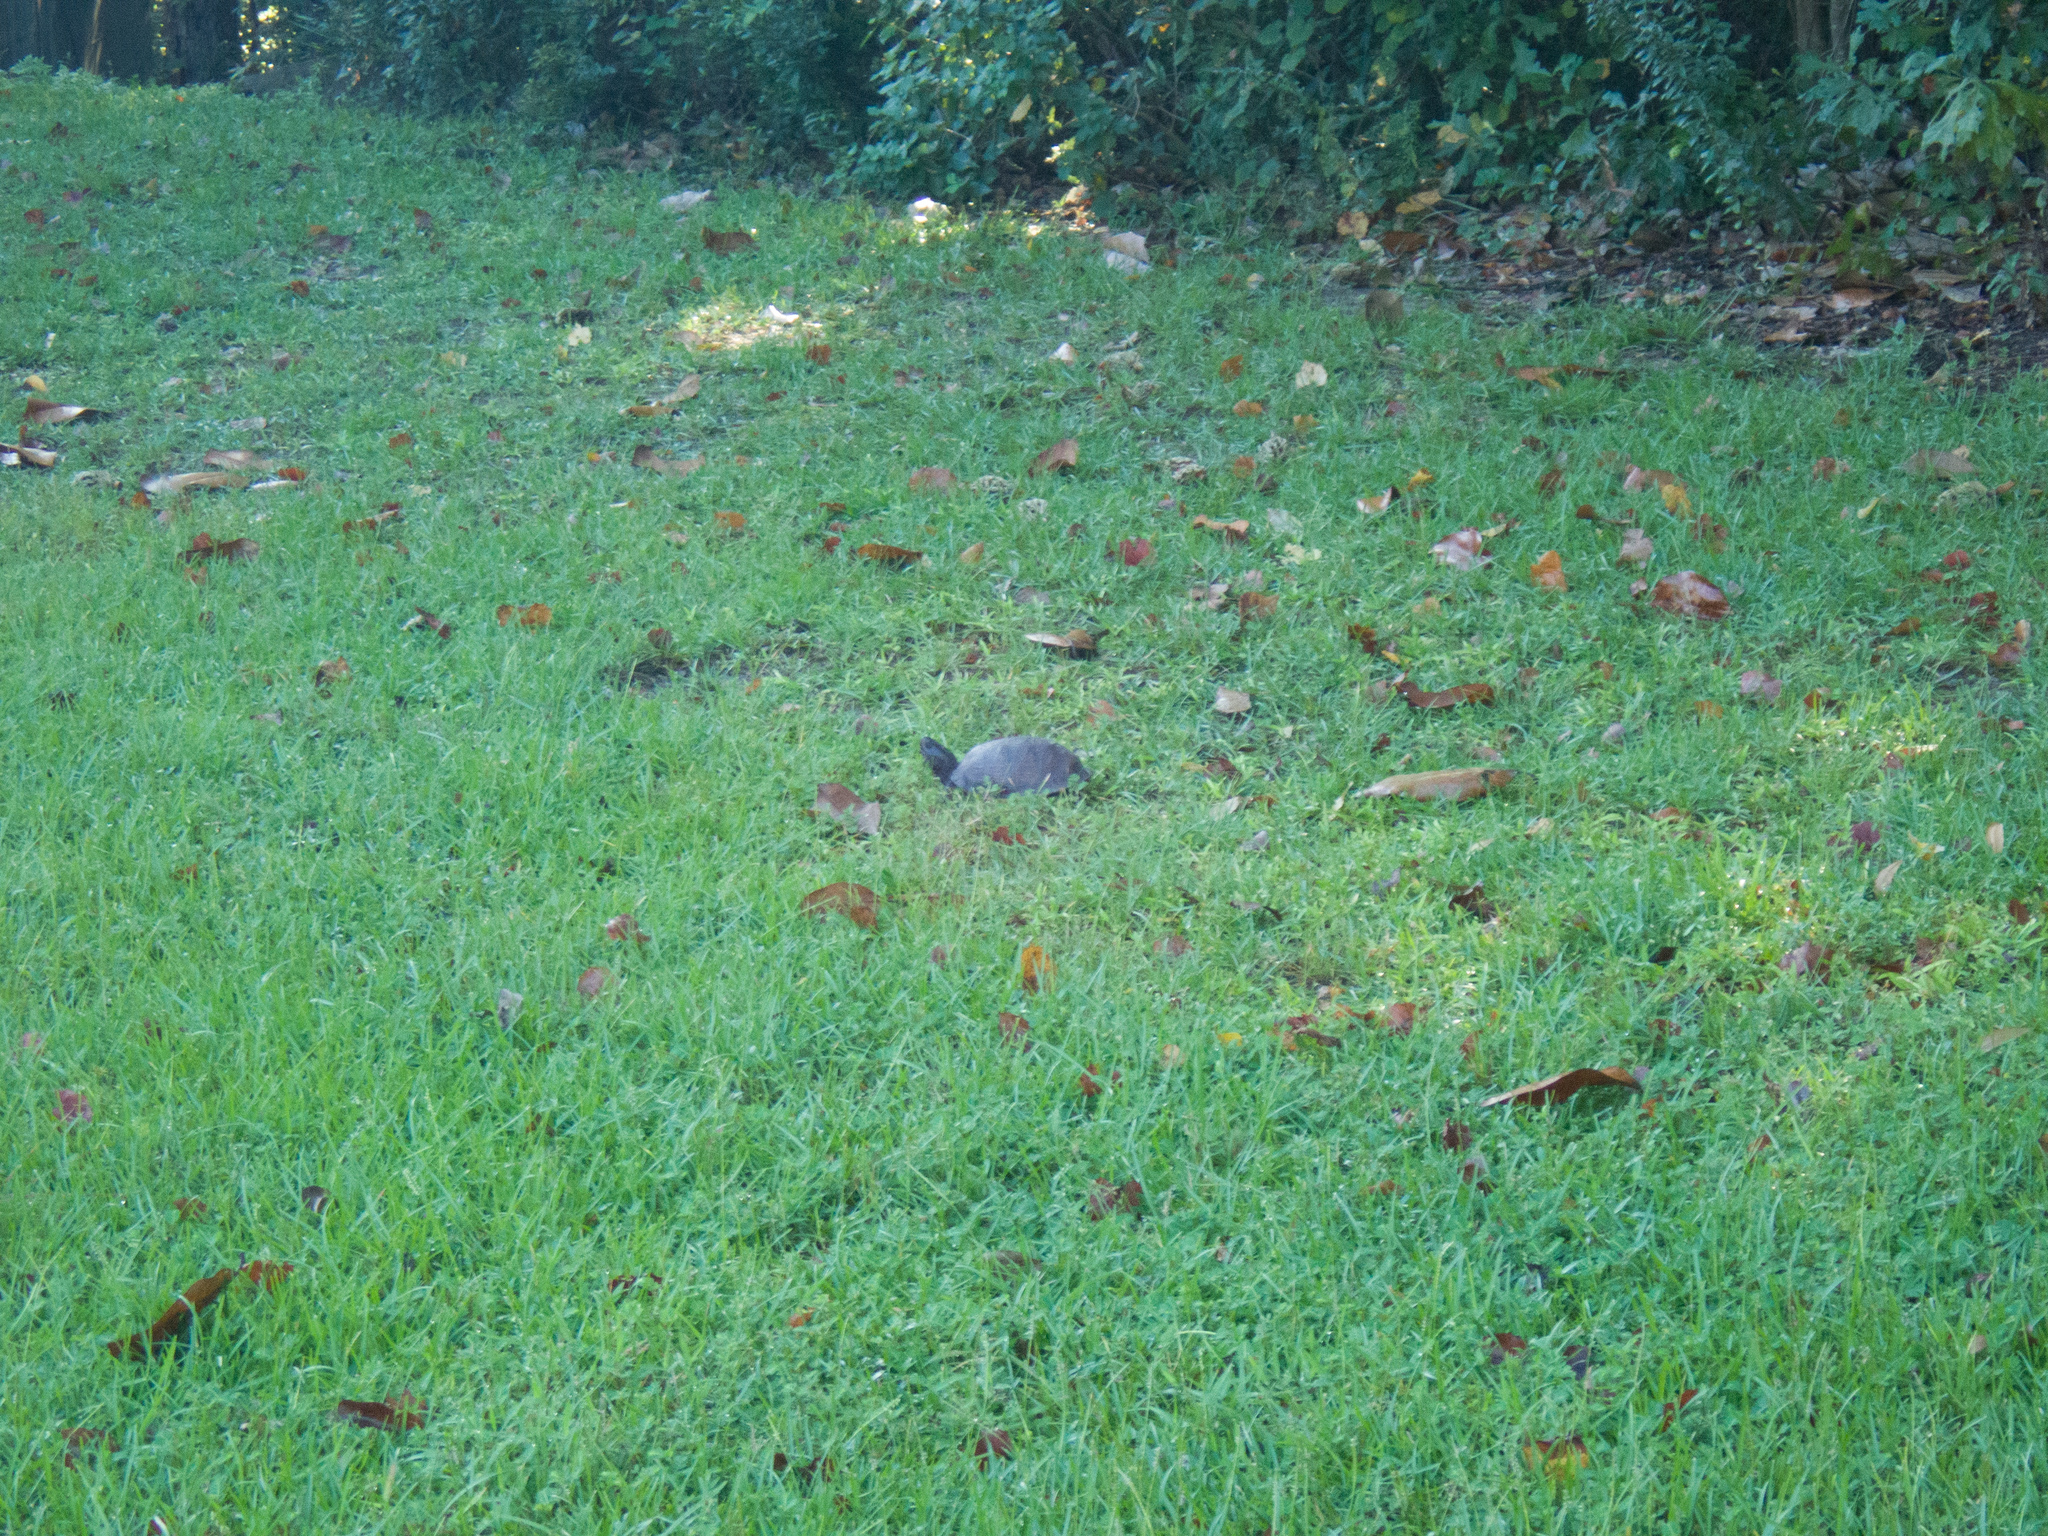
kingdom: Animalia
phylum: Chordata
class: Testudines
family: Emydidae
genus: Terrapene
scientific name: Terrapene carolina
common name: Common box turtle
